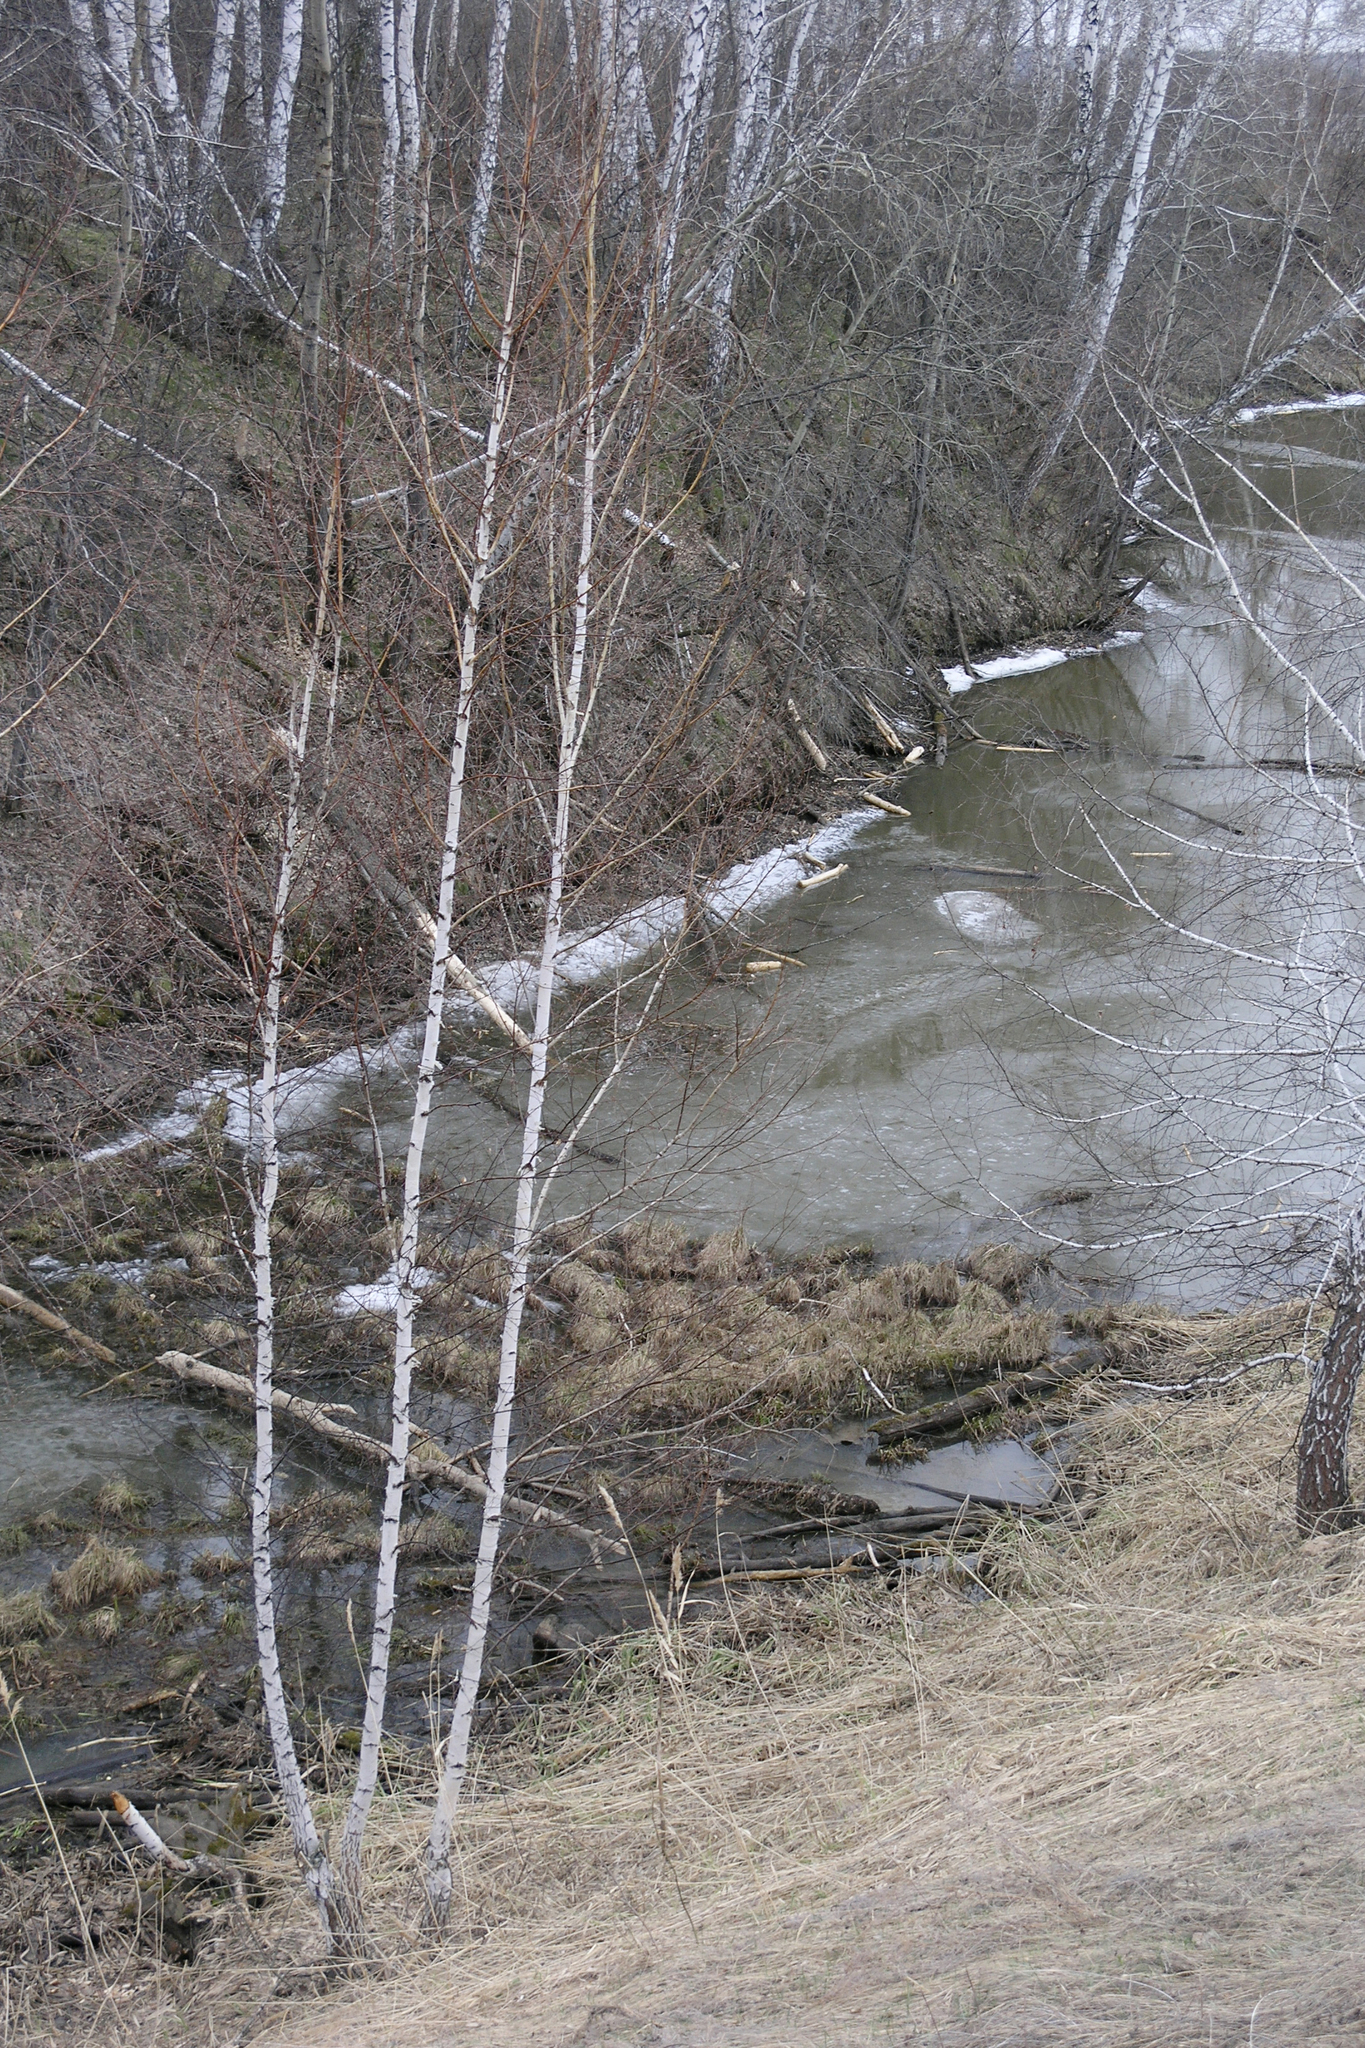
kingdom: Plantae
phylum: Tracheophyta
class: Magnoliopsida
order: Fagales
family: Betulaceae
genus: Betula
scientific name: Betula pendula
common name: Silver birch
